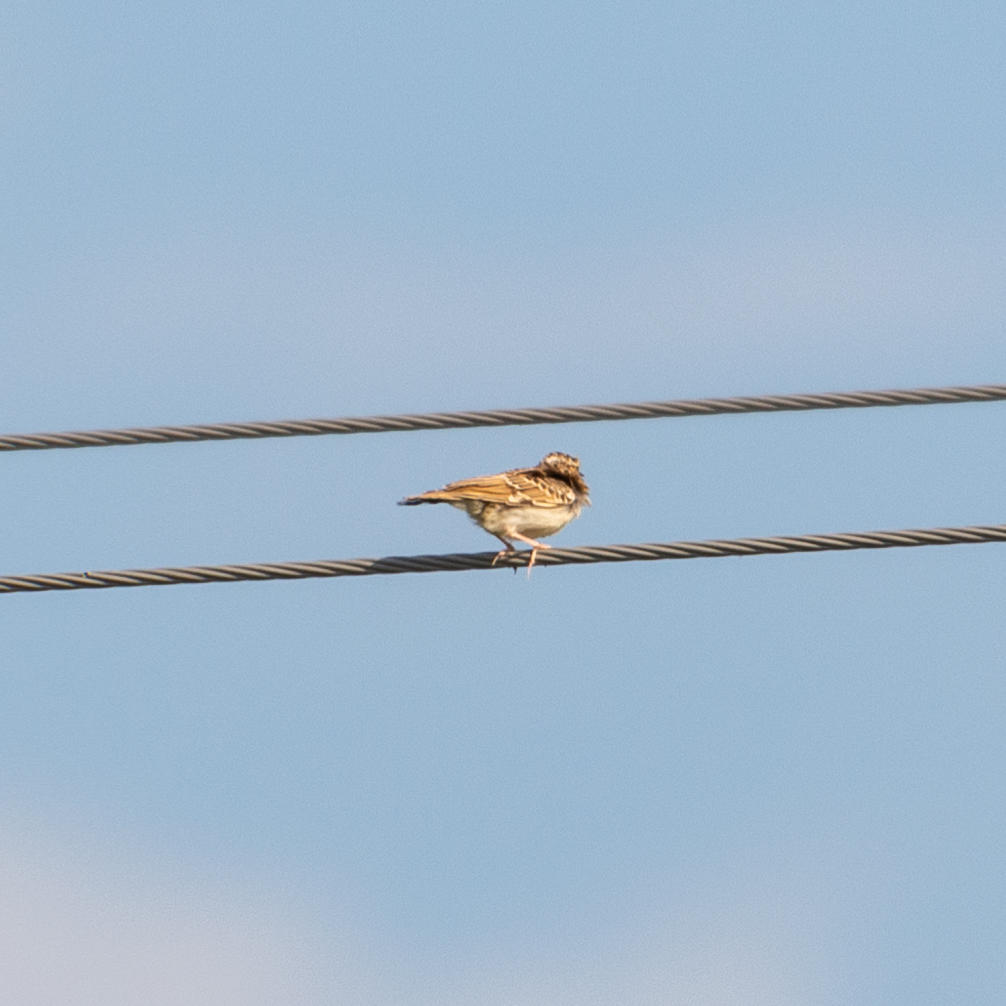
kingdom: Animalia
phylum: Chordata
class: Aves
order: Passeriformes
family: Alaudidae
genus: Lullula
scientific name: Lullula arborea
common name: Woodlark
